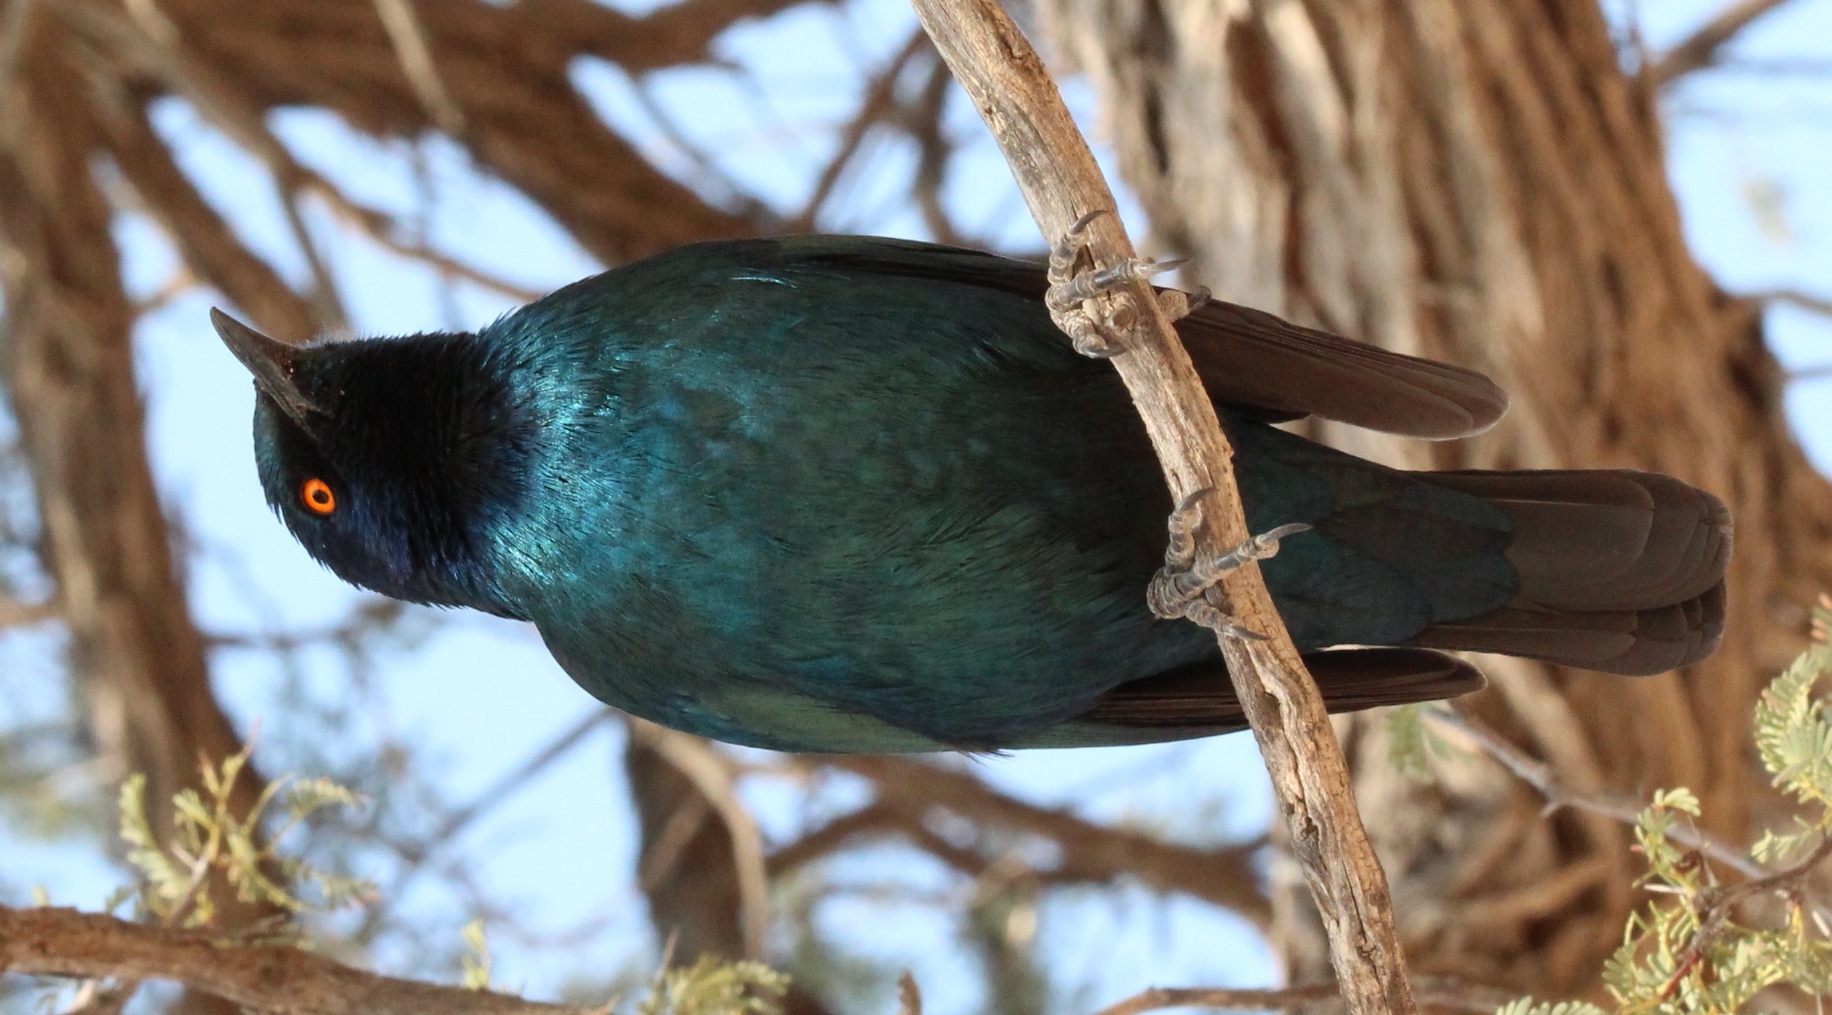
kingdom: Animalia
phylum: Chordata
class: Aves
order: Passeriformes
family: Sturnidae
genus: Lamprotornis
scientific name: Lamprotornis nitens
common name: Cape starling
